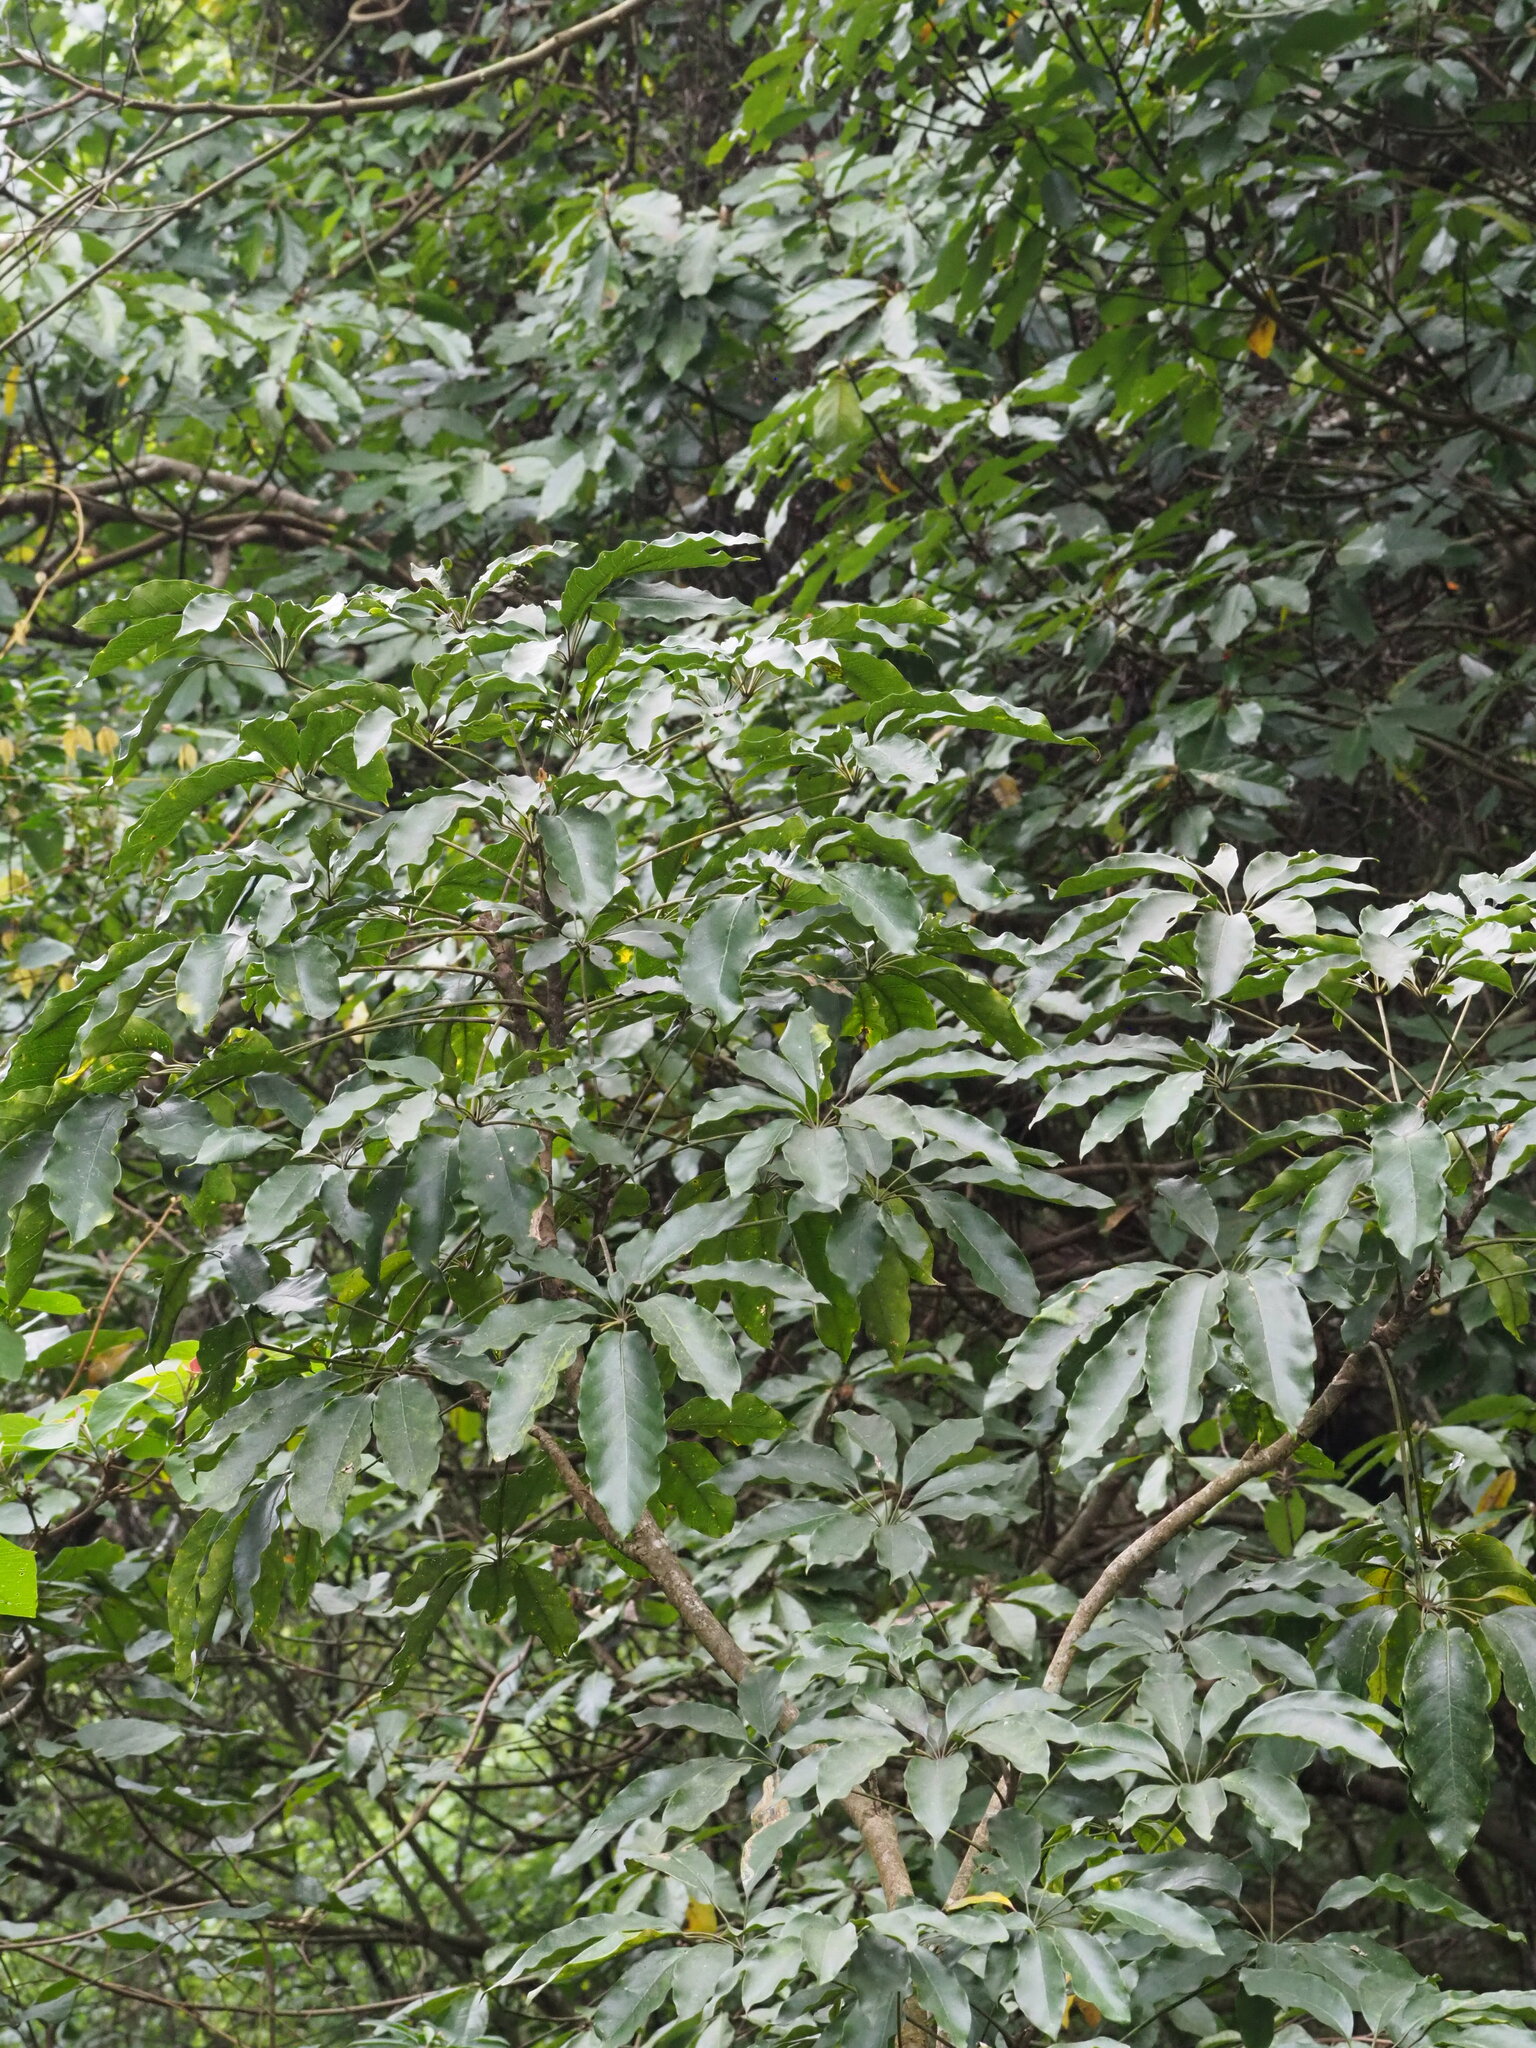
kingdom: Plantae
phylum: Tracheophyta
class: Magnoliopsida
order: Apiales
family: Araliaceae
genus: Heptapleurum
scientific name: Heptapleurum heptaphyllum
